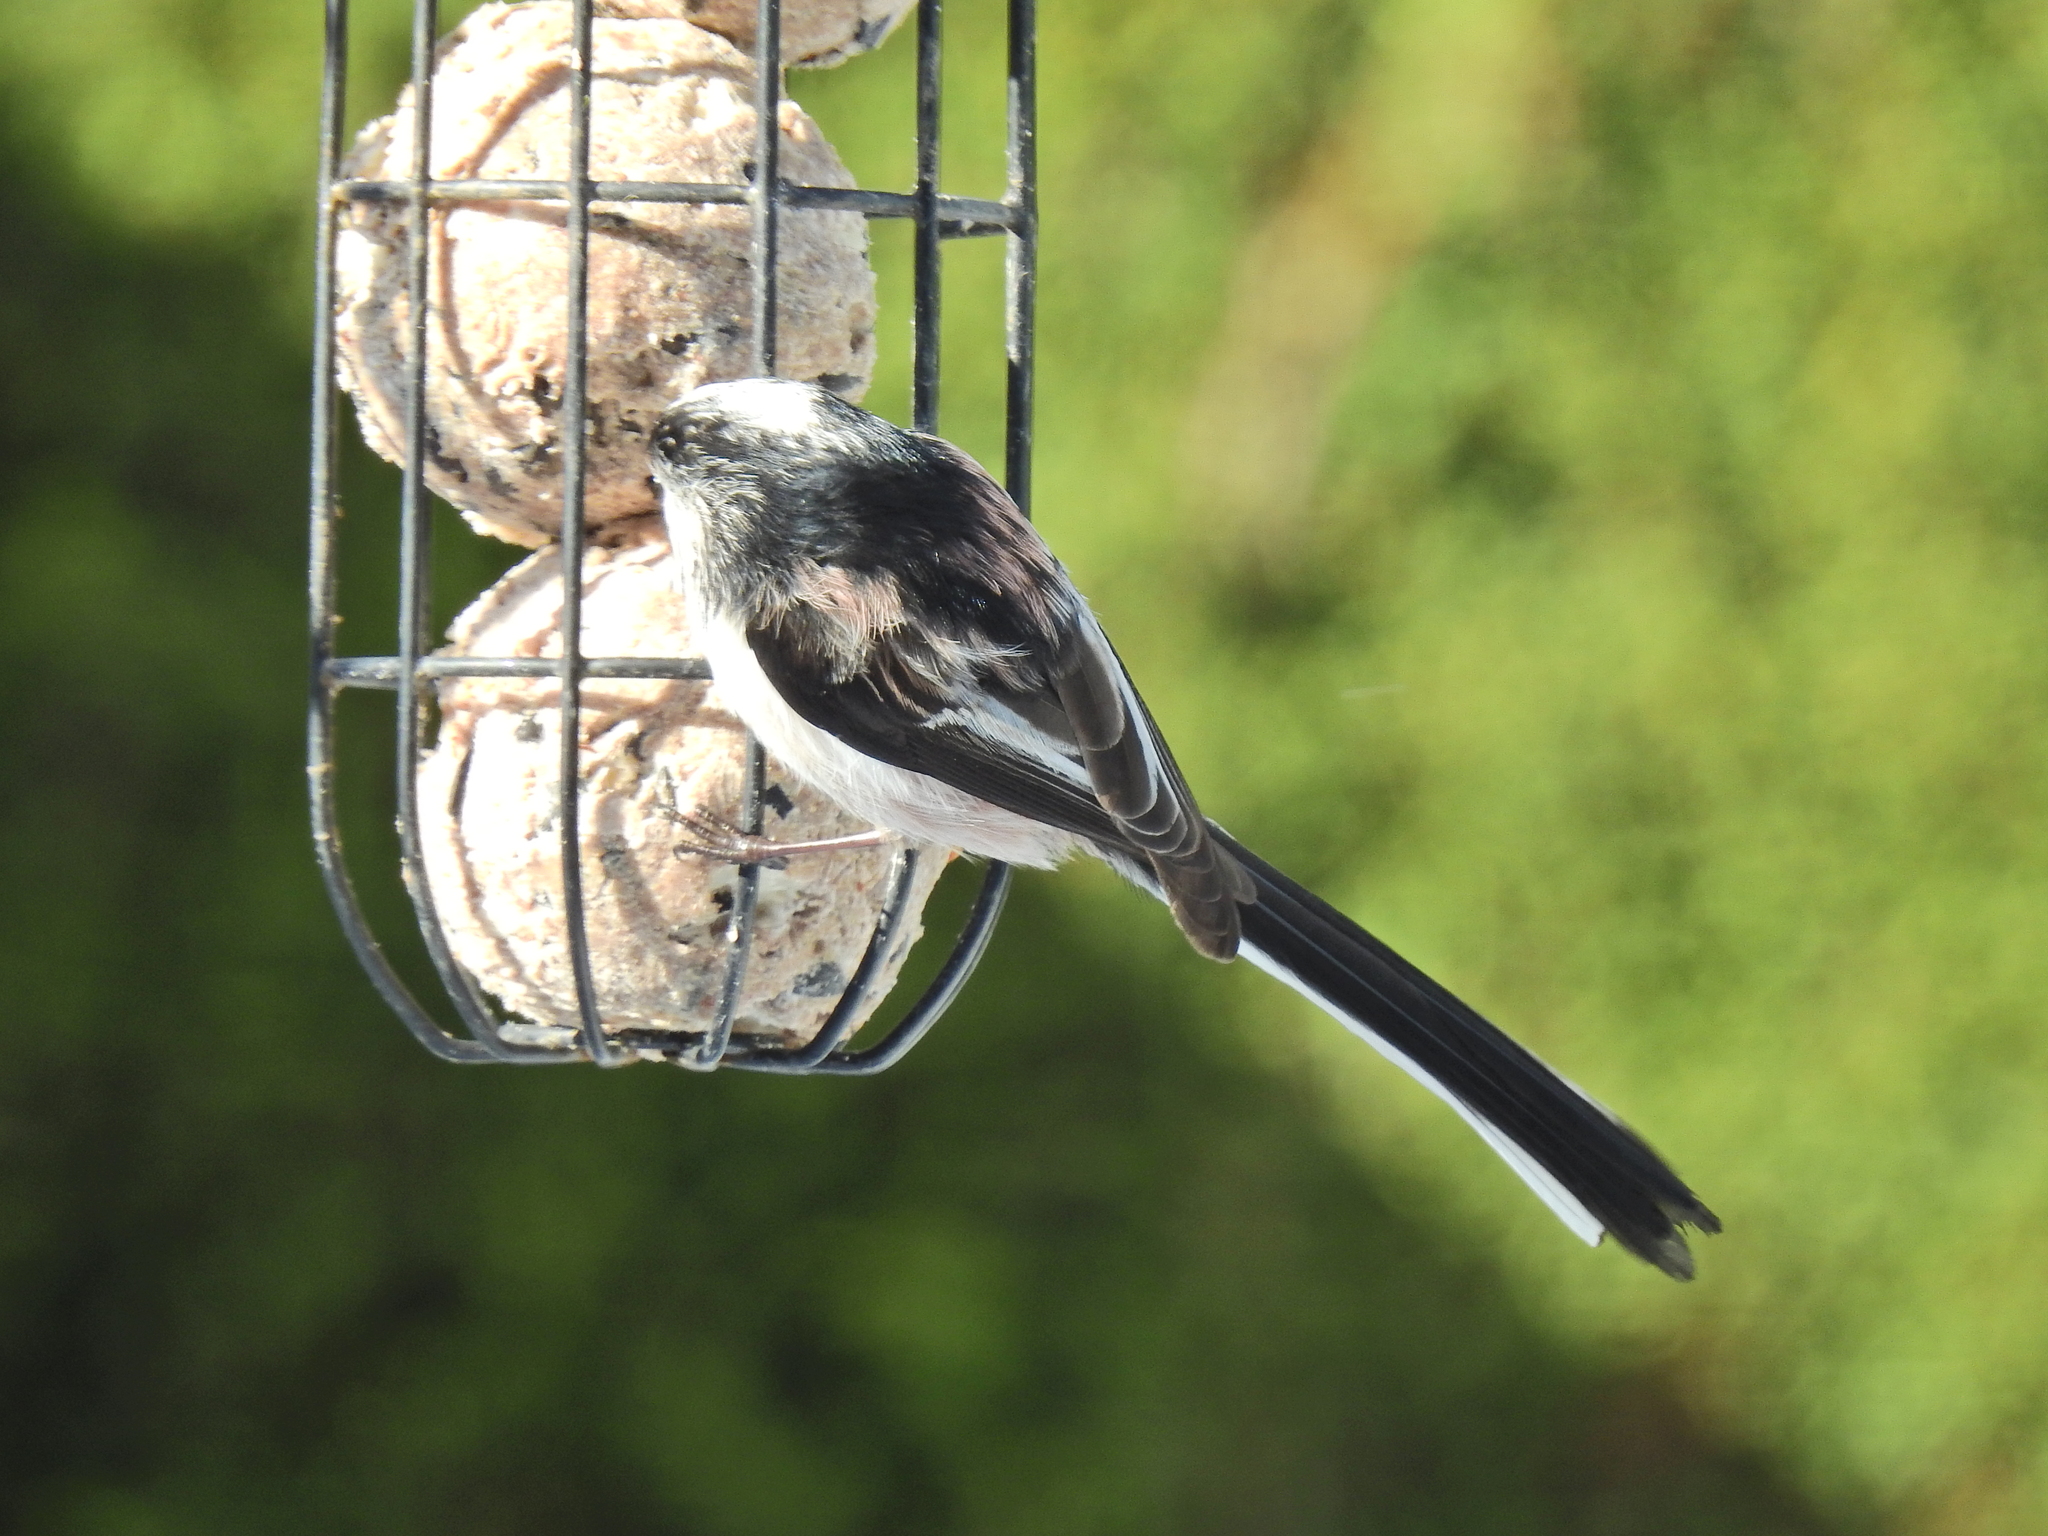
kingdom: Animalia
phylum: Chordata
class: Aves
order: Passeriformes
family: Aegithalidae
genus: Aegithalos
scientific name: Aegithalos caudatus
